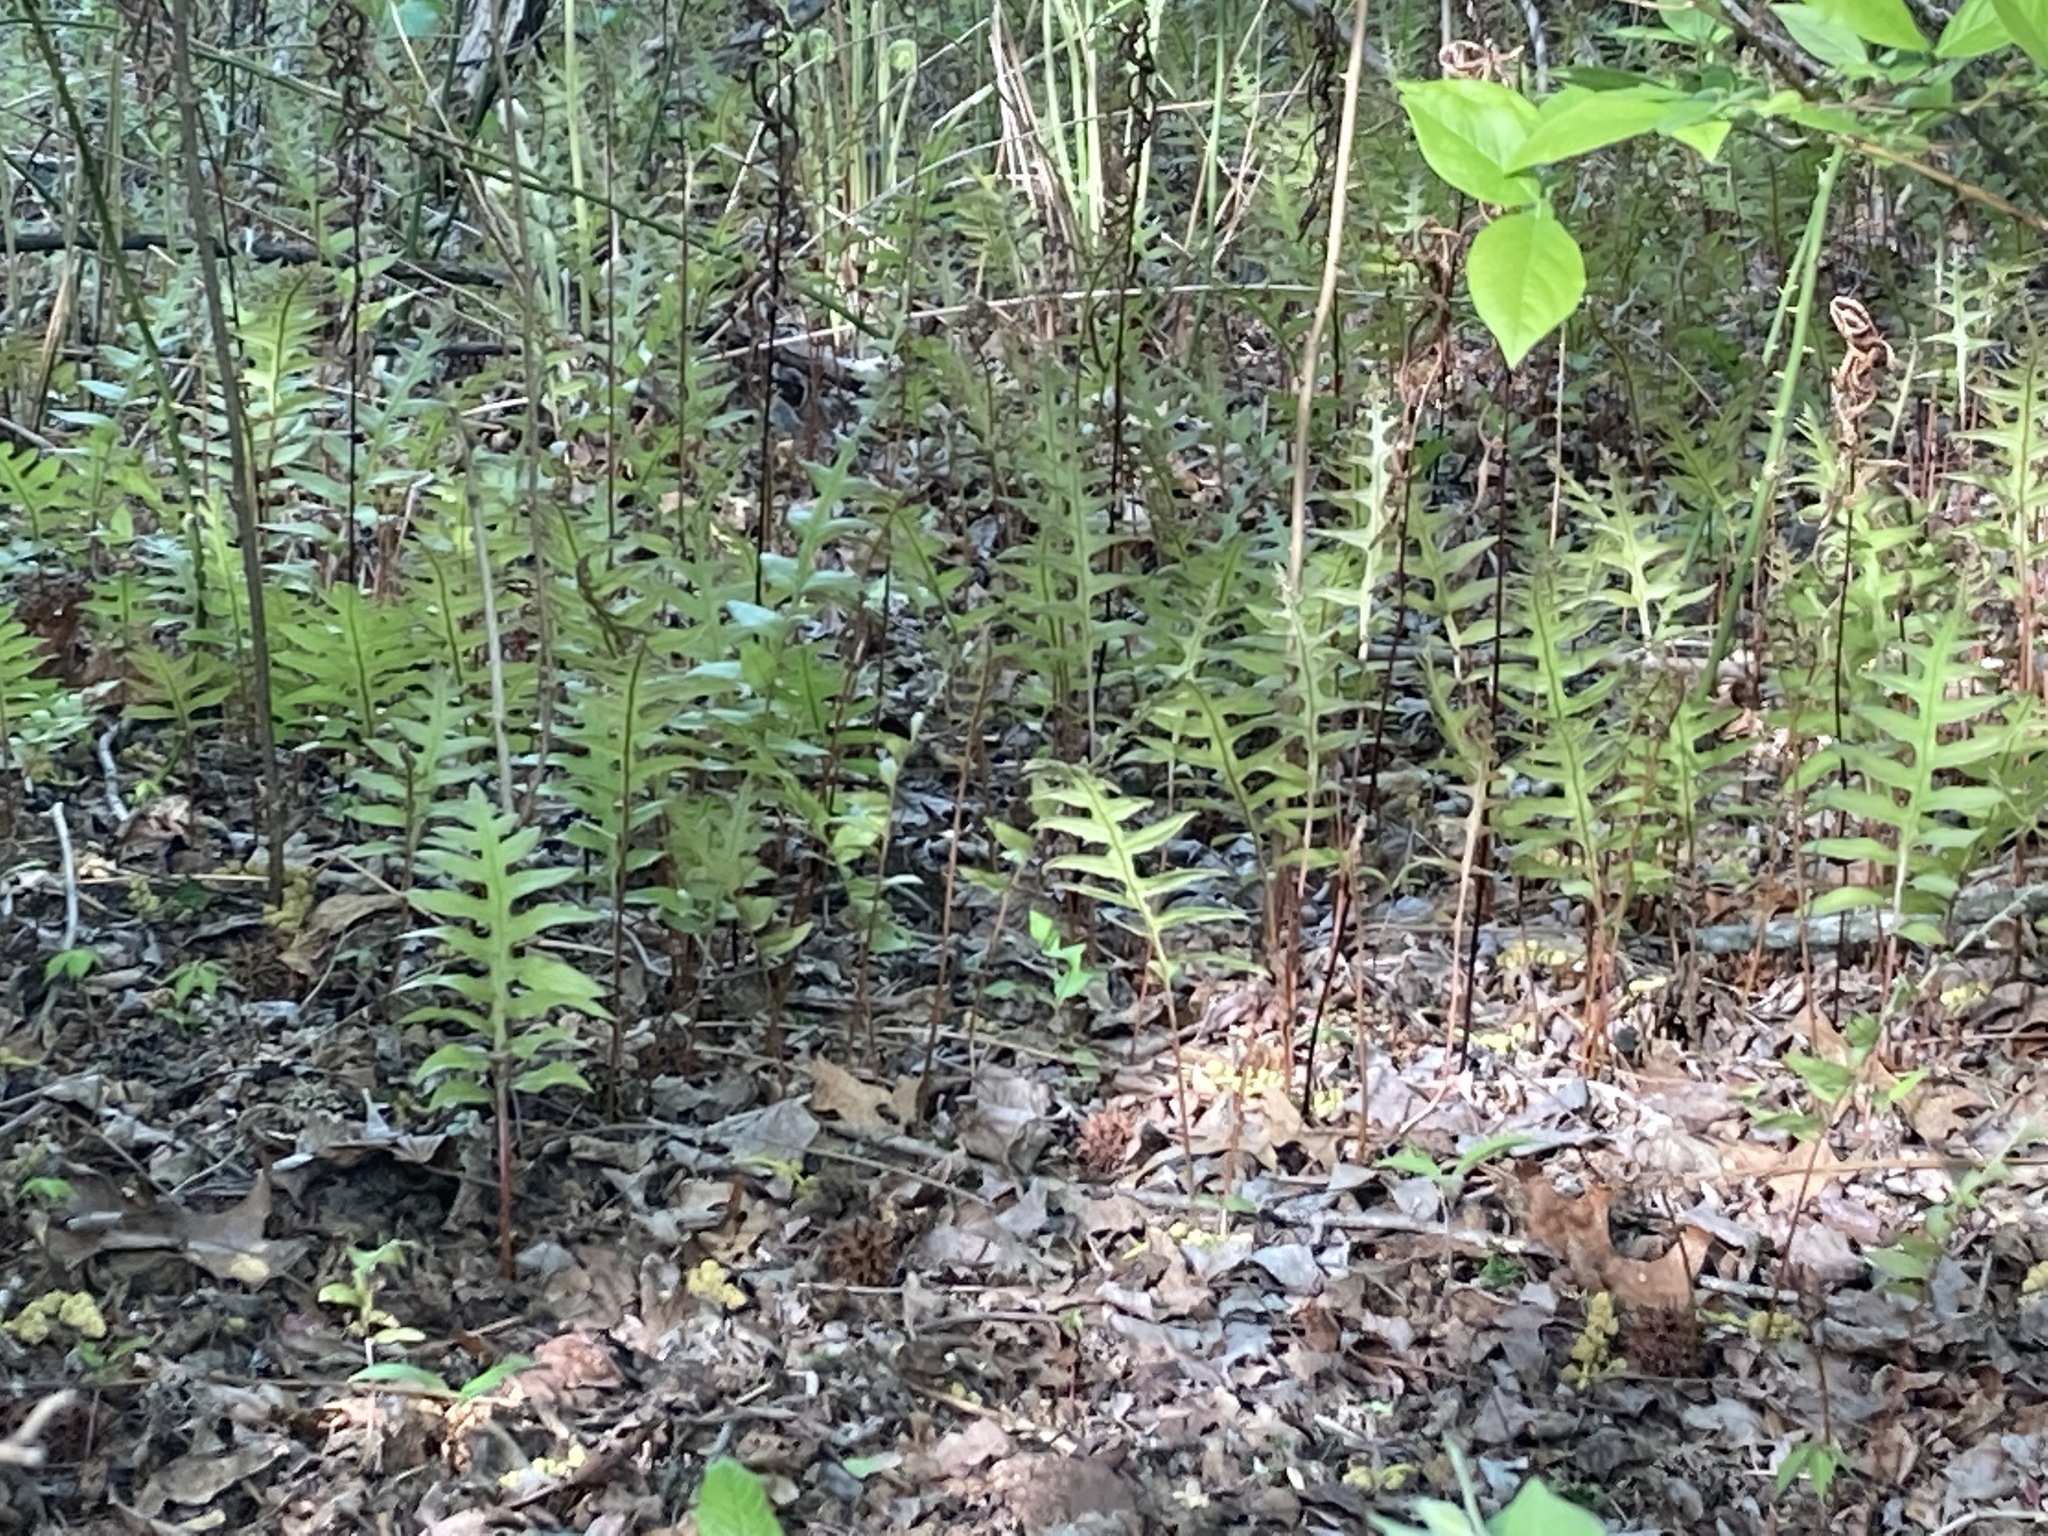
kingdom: Plantae
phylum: Tracheophyta
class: Polypodiopsida
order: Polypodiales
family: Blechnaceae
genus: Lorinseria
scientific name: Lorinseria areolata
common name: Dwarf chain fern
